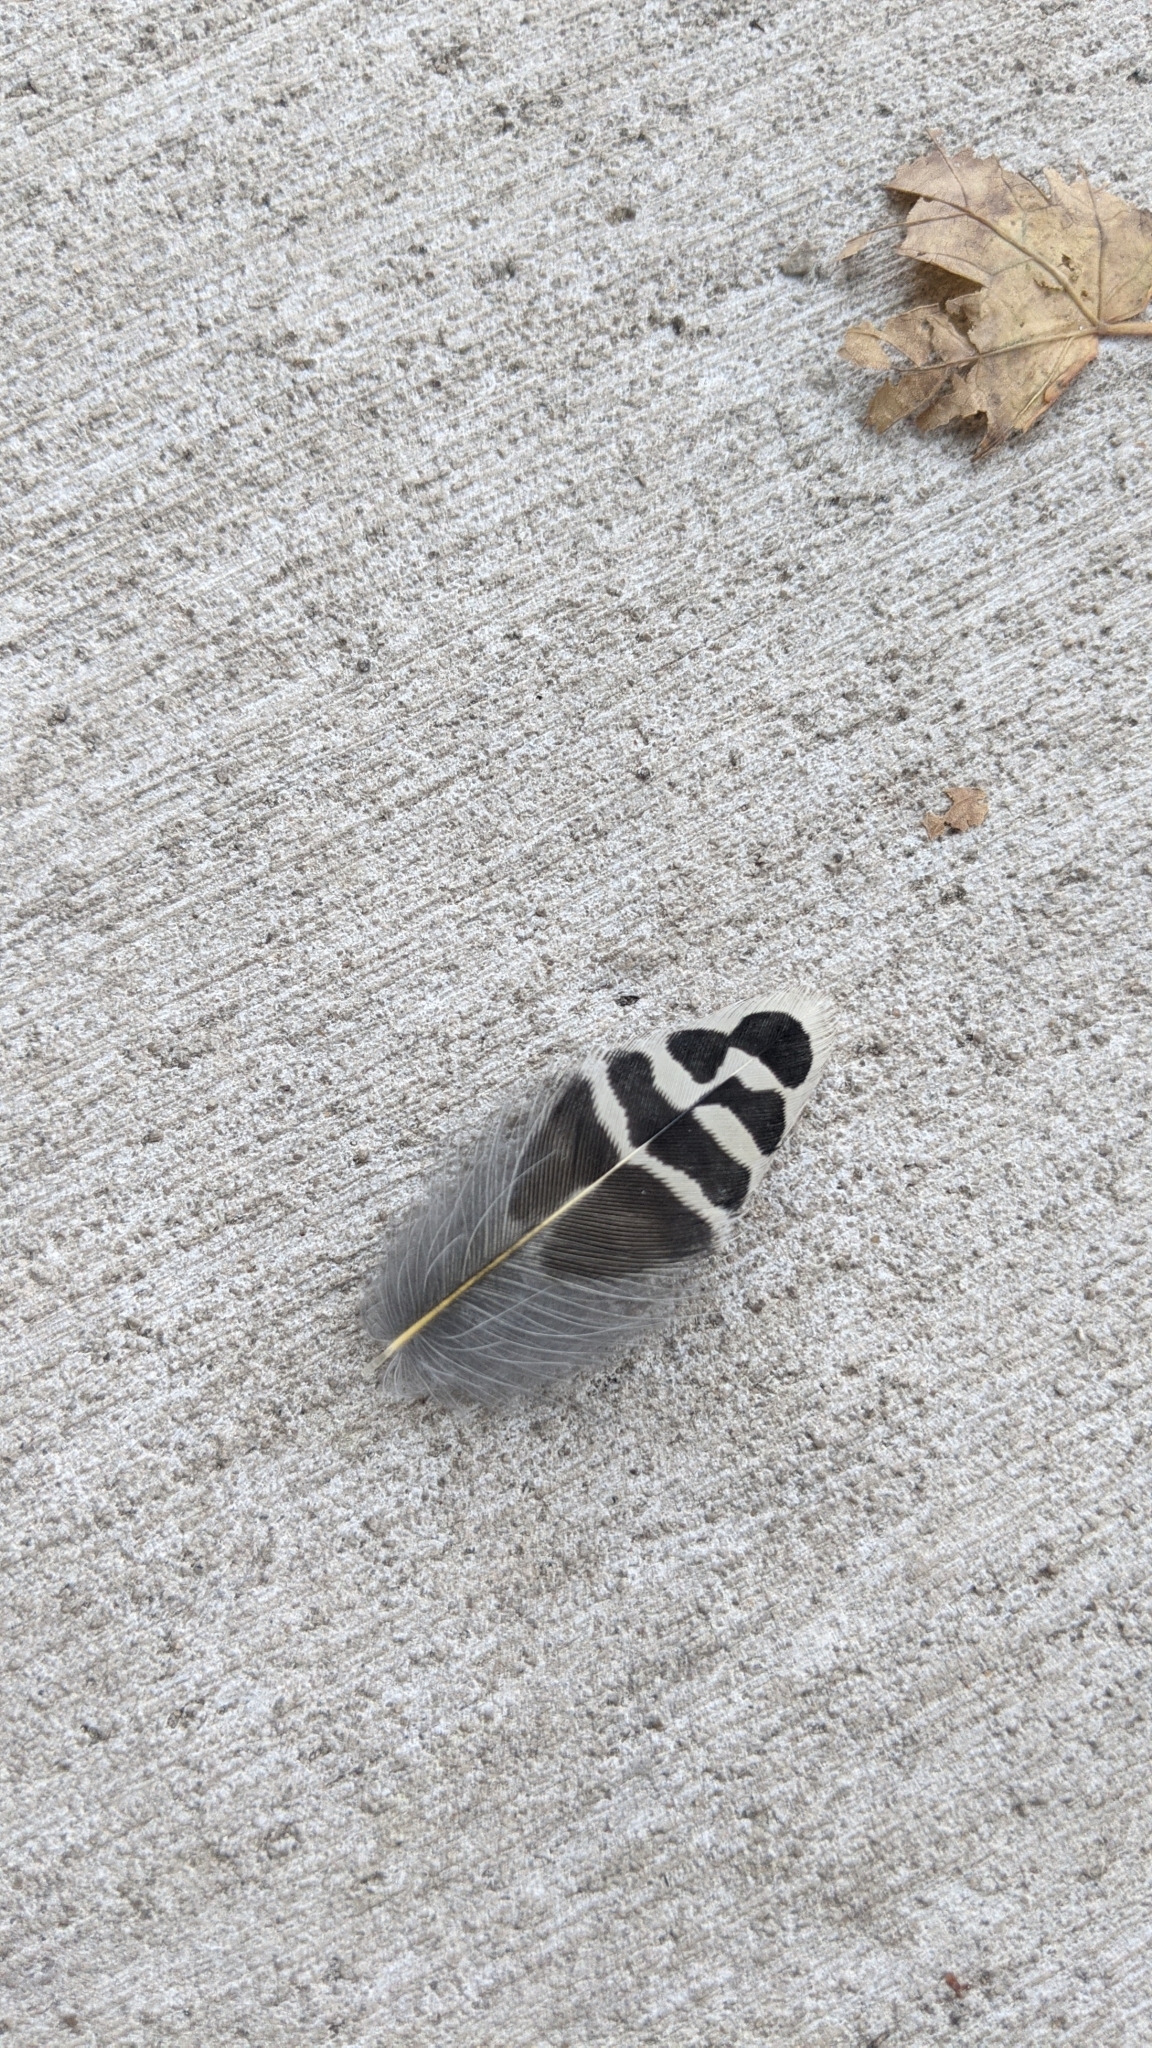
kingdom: Animalia
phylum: Chordata
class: Aves
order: Piciformes
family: Picidae
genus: Colaptes
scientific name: Colaptes auratus
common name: Northern flicker
